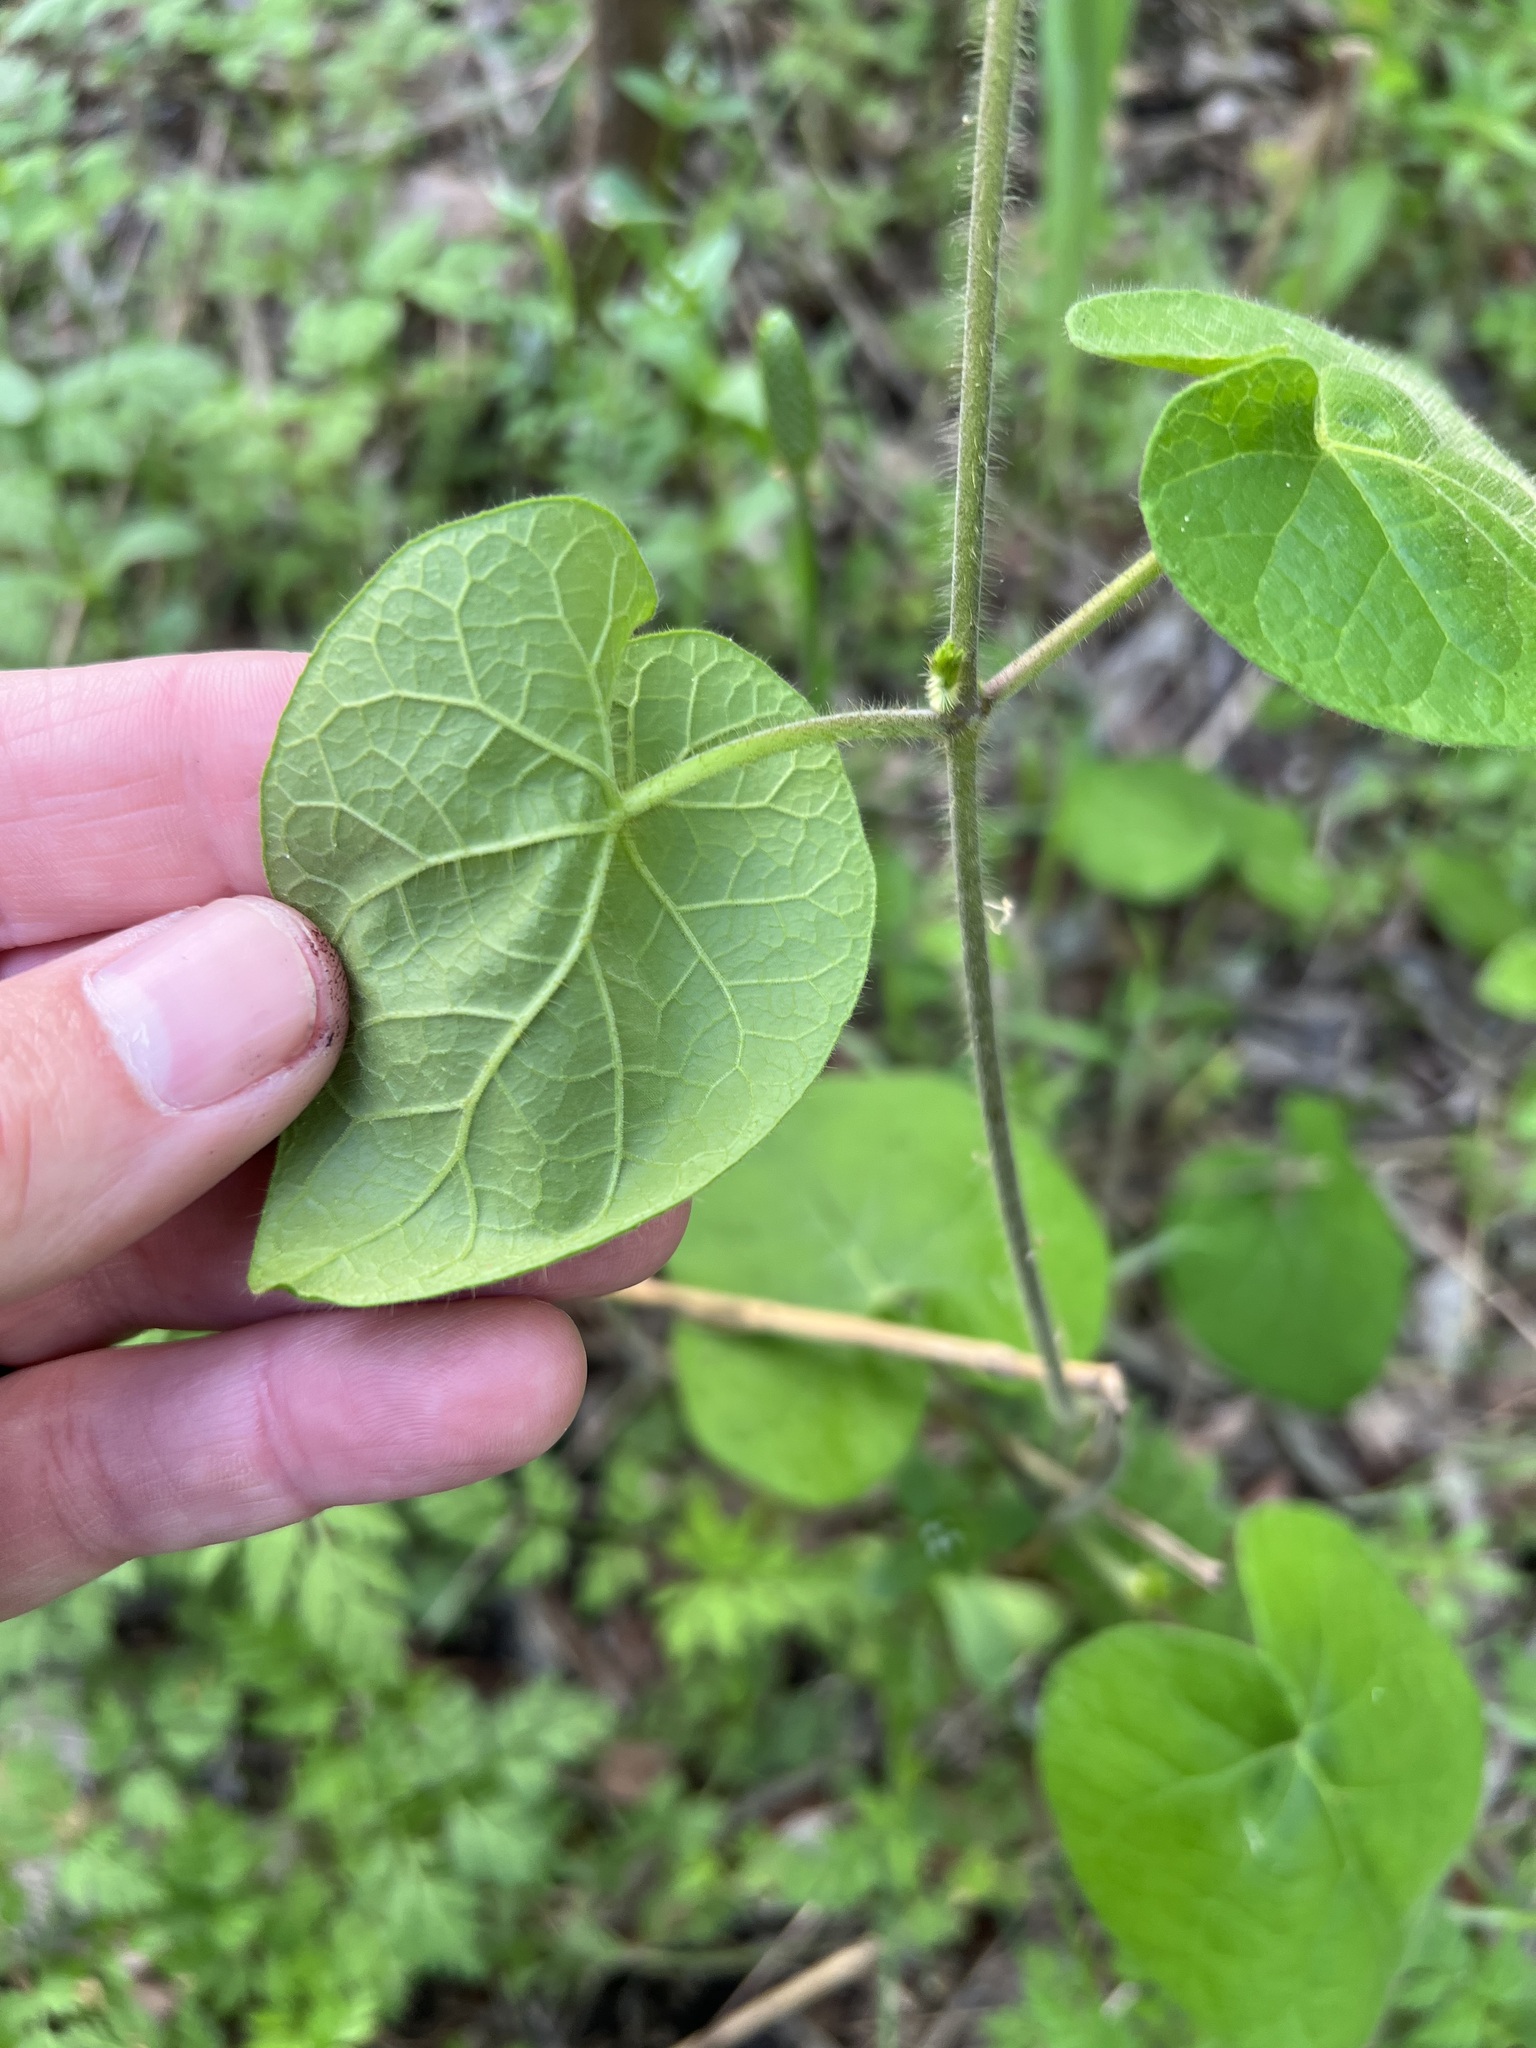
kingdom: Plantae
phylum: Tracheophyta
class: Magnoliopsida
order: Gentianales
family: Apocynaceae
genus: Dictyanthus
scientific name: Dictyanthus reticulatus
